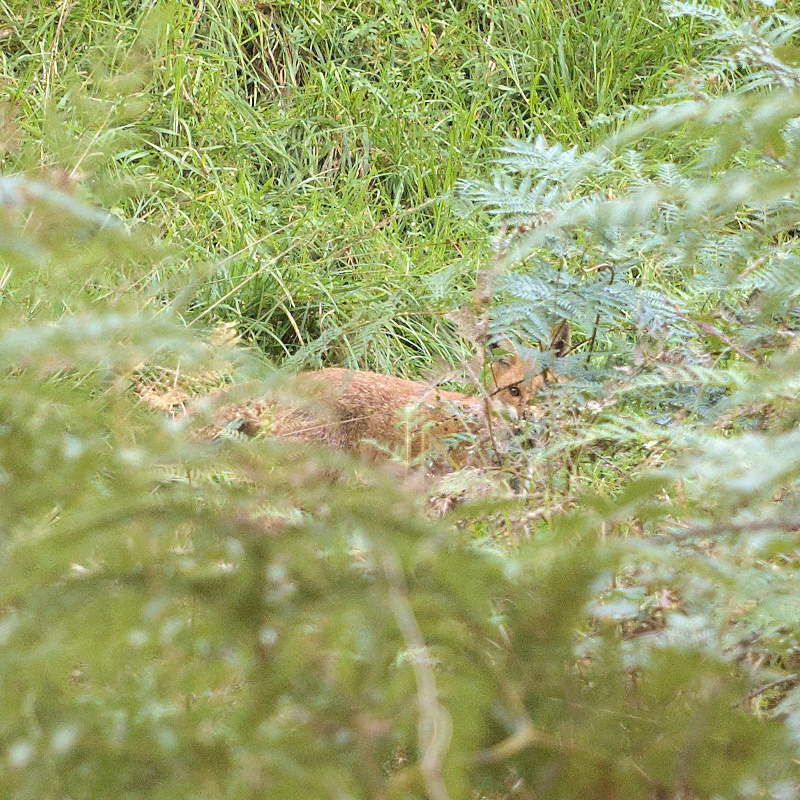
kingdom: Animalia
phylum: Chordata
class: Mammalia
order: Carnivora
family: Canidae
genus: Vulpes
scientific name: Vulpes vulpes
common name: Red fox
